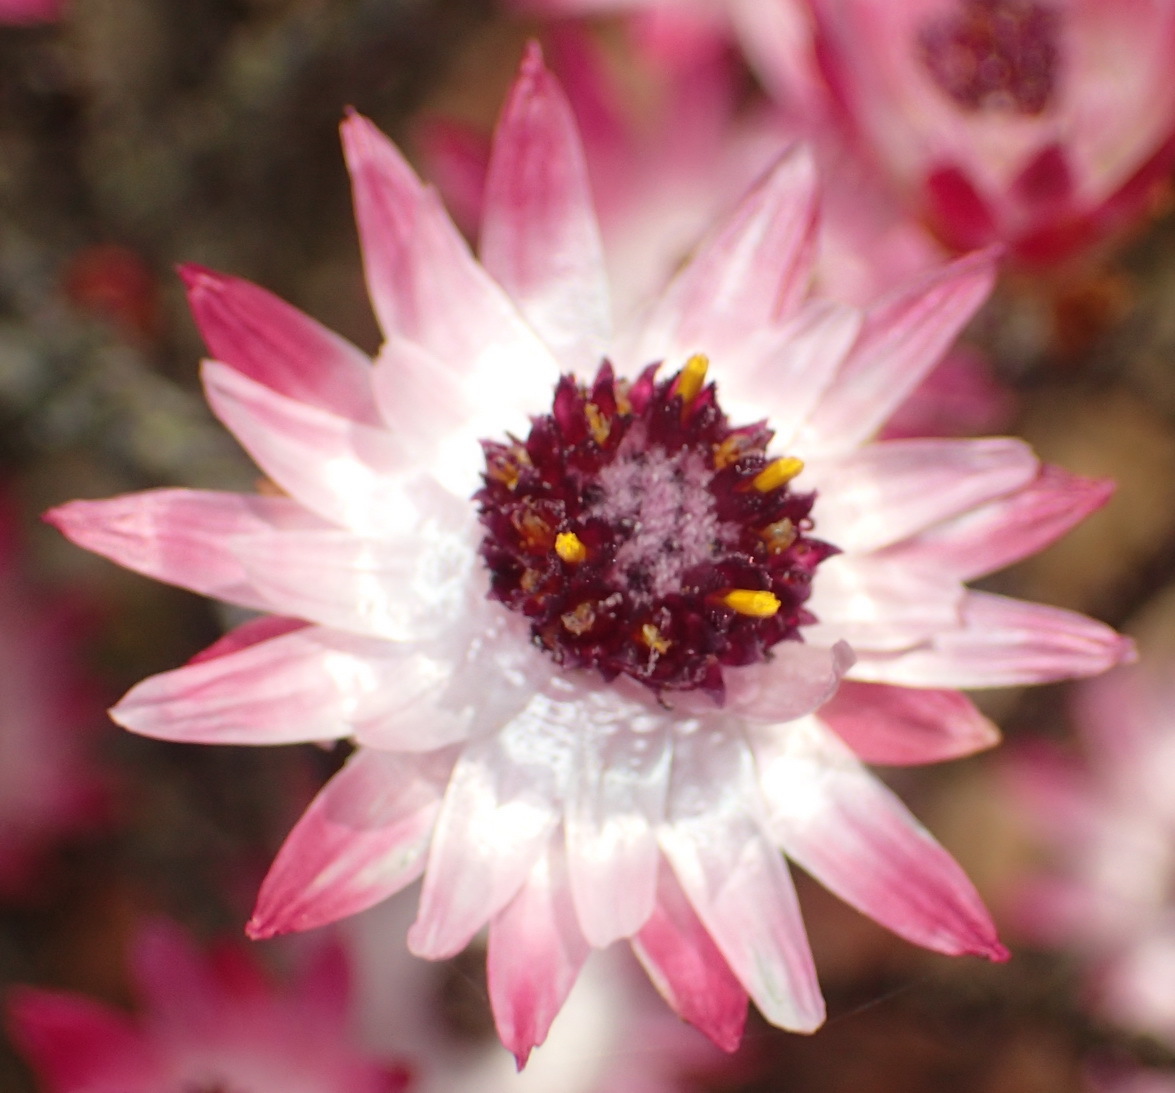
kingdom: Plantae
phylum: Tracheophyta
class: Magnoliopsida
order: Asterales
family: Asteraceae
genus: Syncarpha
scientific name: Syncarpha canescens
